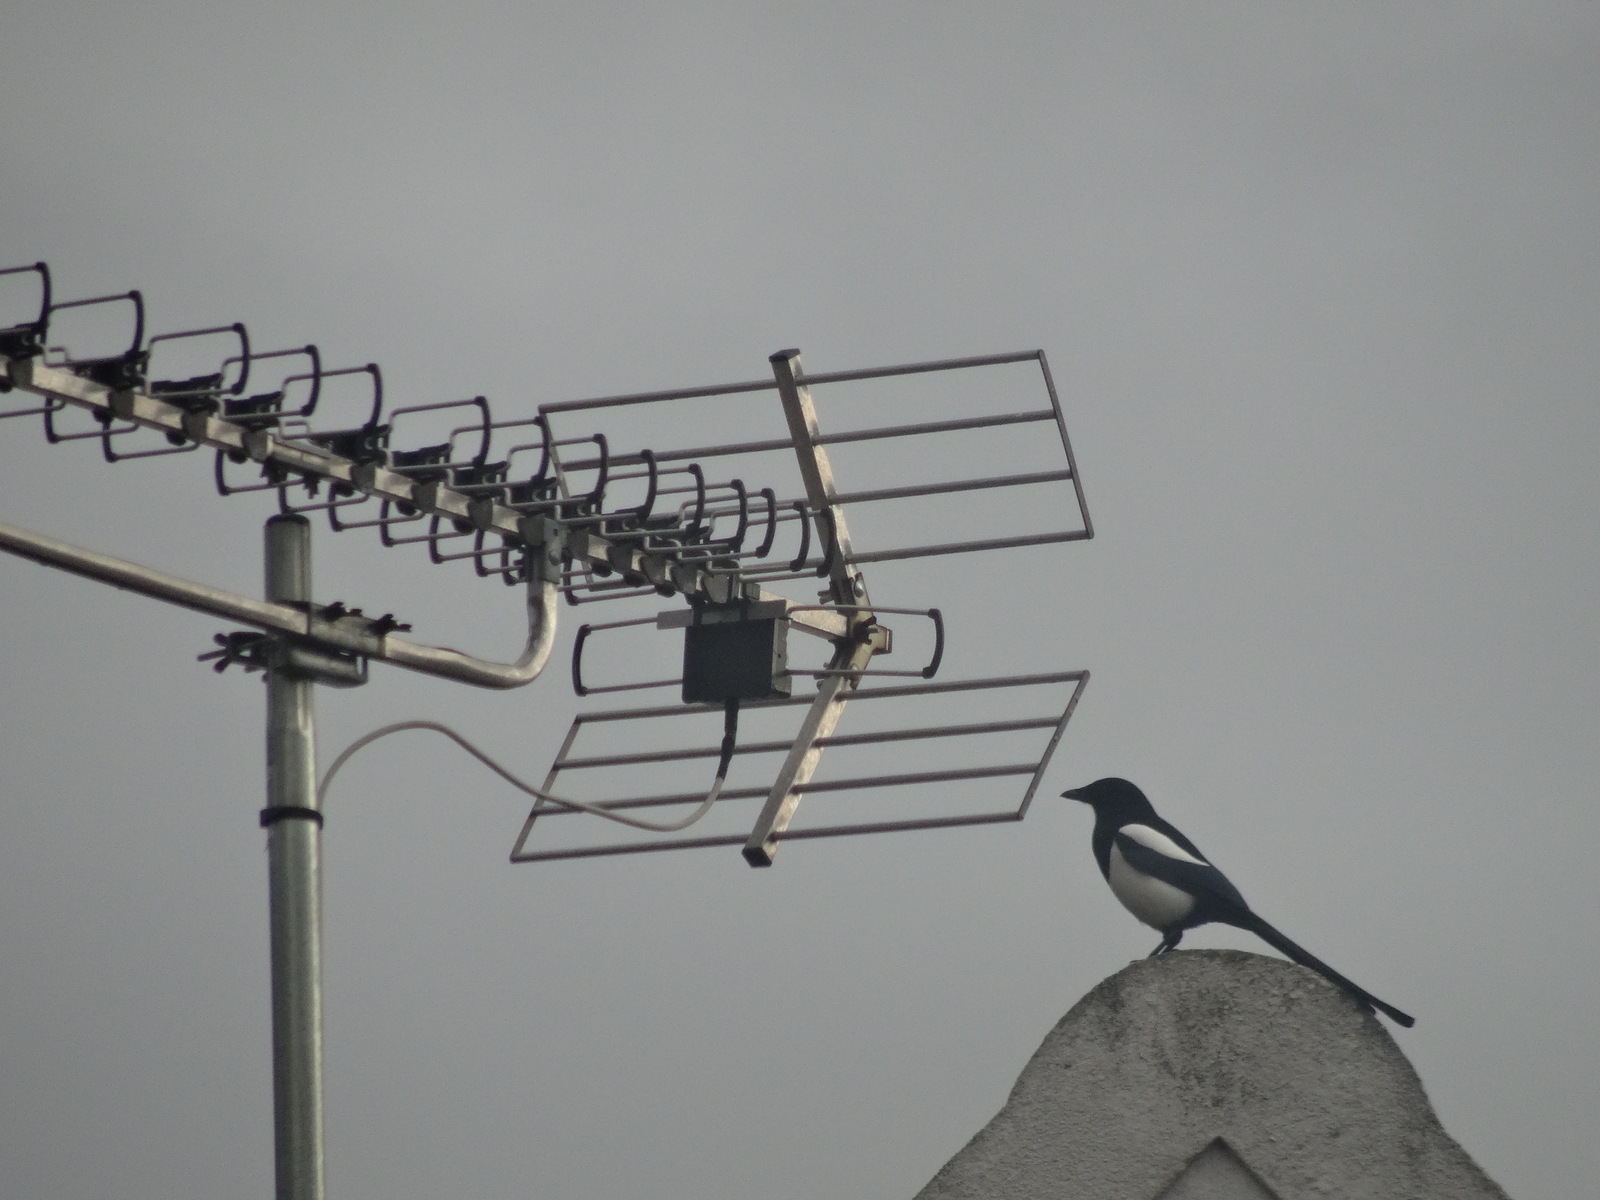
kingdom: Animalia
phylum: Chordata
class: Aves
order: Passeriformes
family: Corvidae
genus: Pica
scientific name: Pica pica
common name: Eurasian magpie
